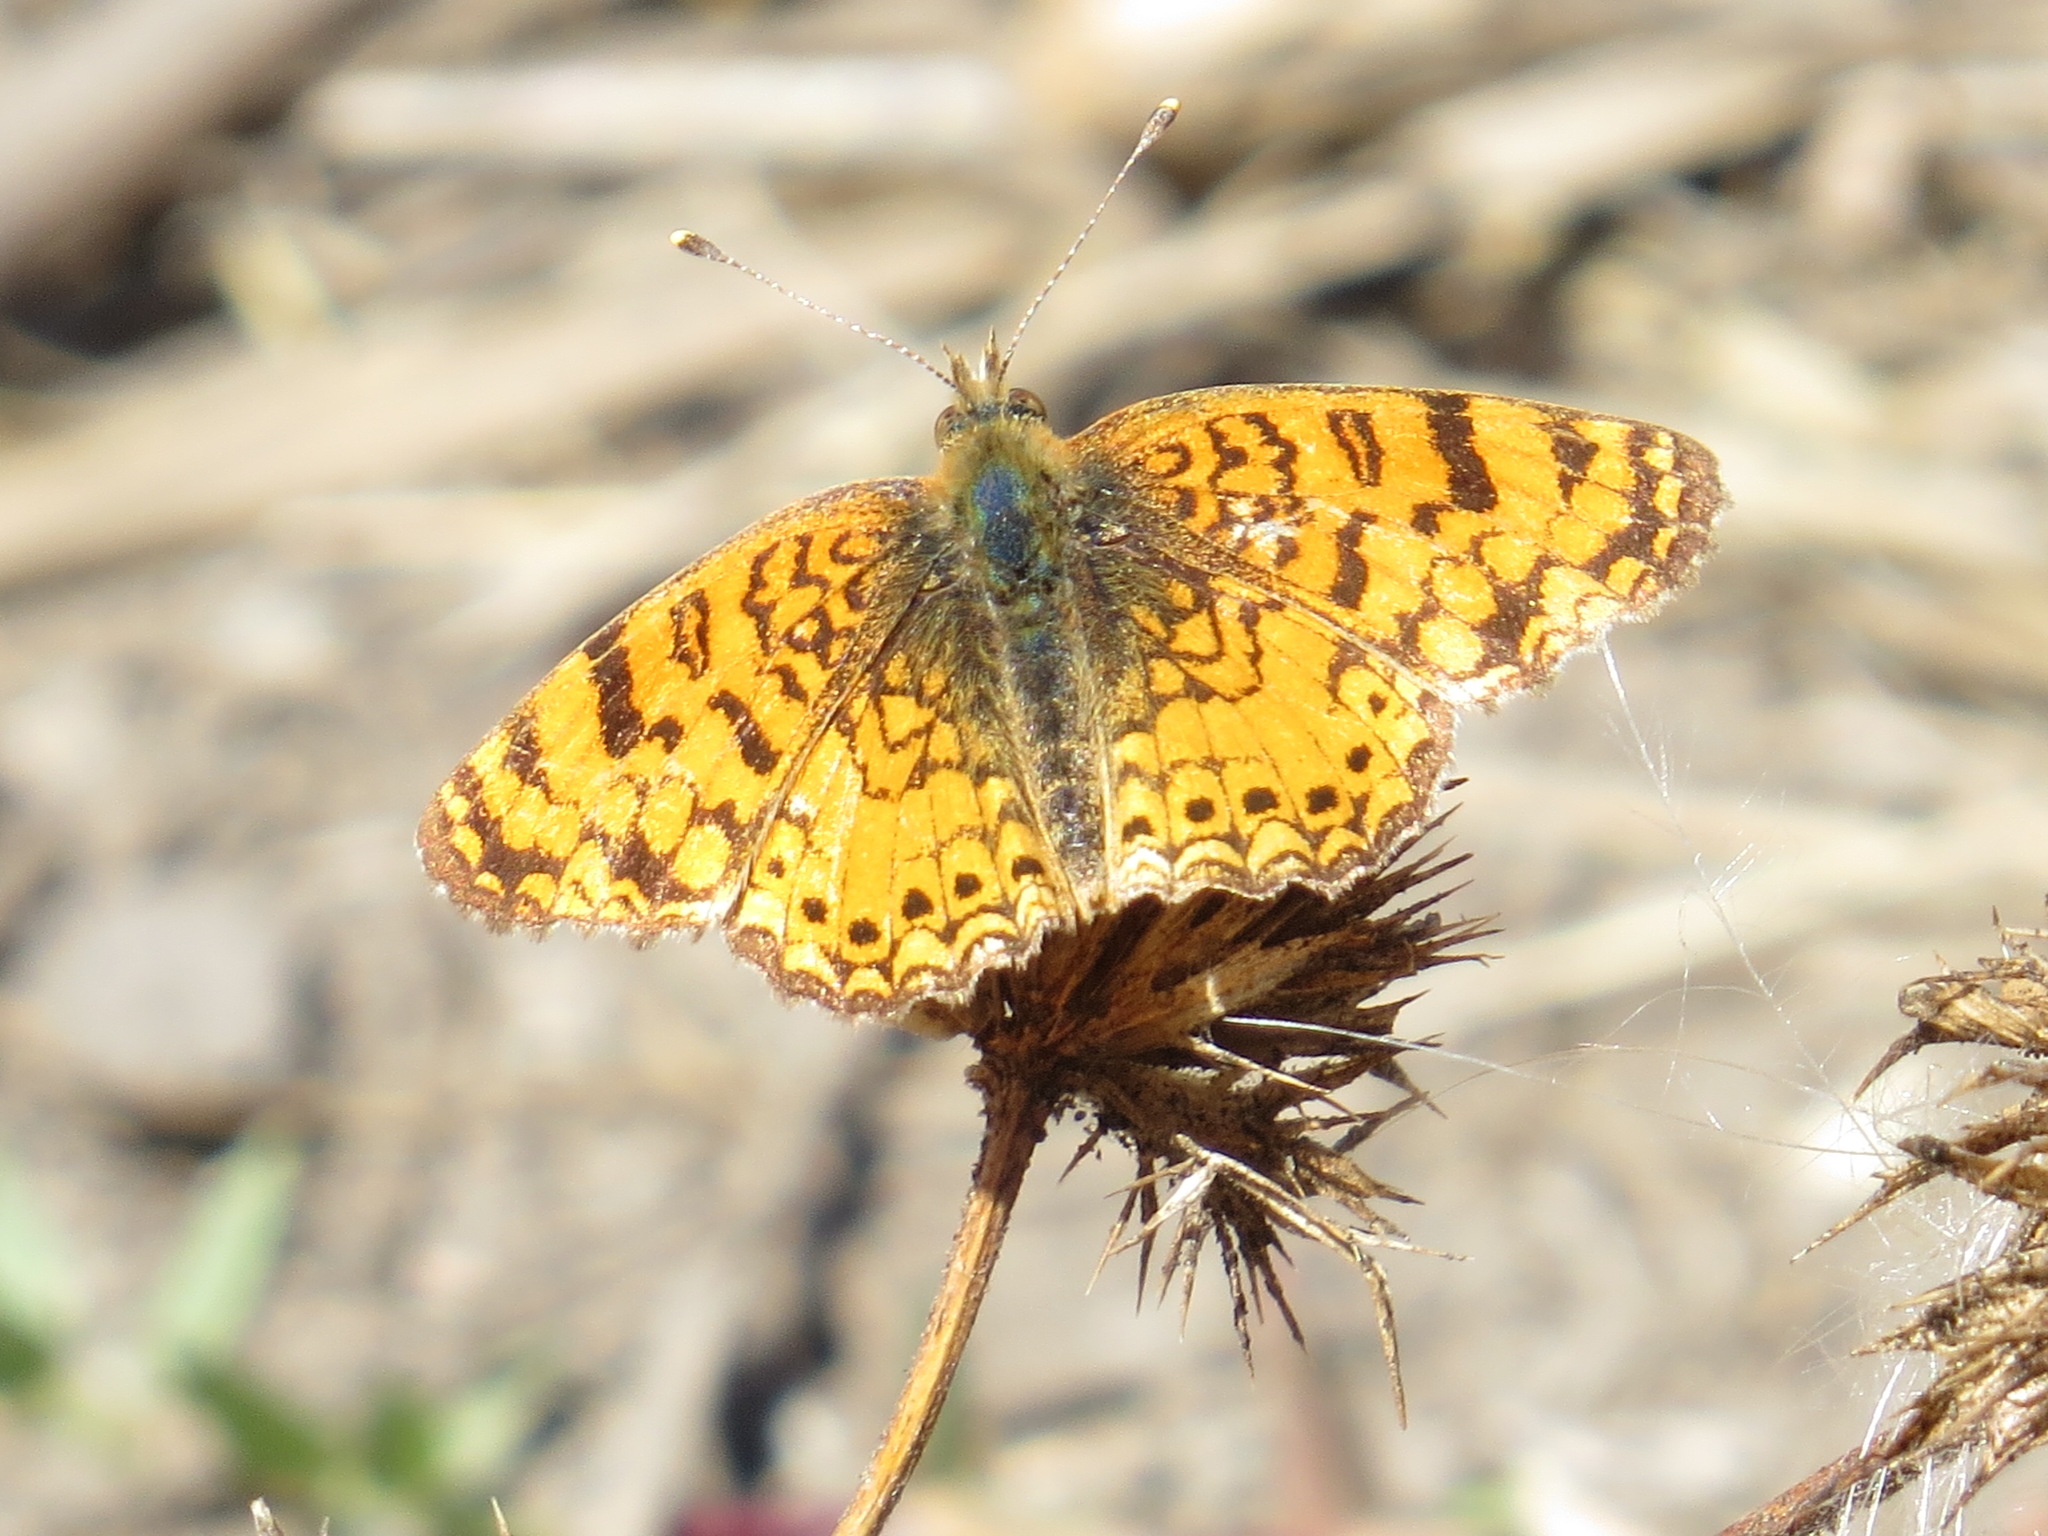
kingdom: Animalia
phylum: Arthropoda
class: Insecta
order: Lepidoptera
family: Nymphalidae
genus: Eresia
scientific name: Eresia aveyrona
